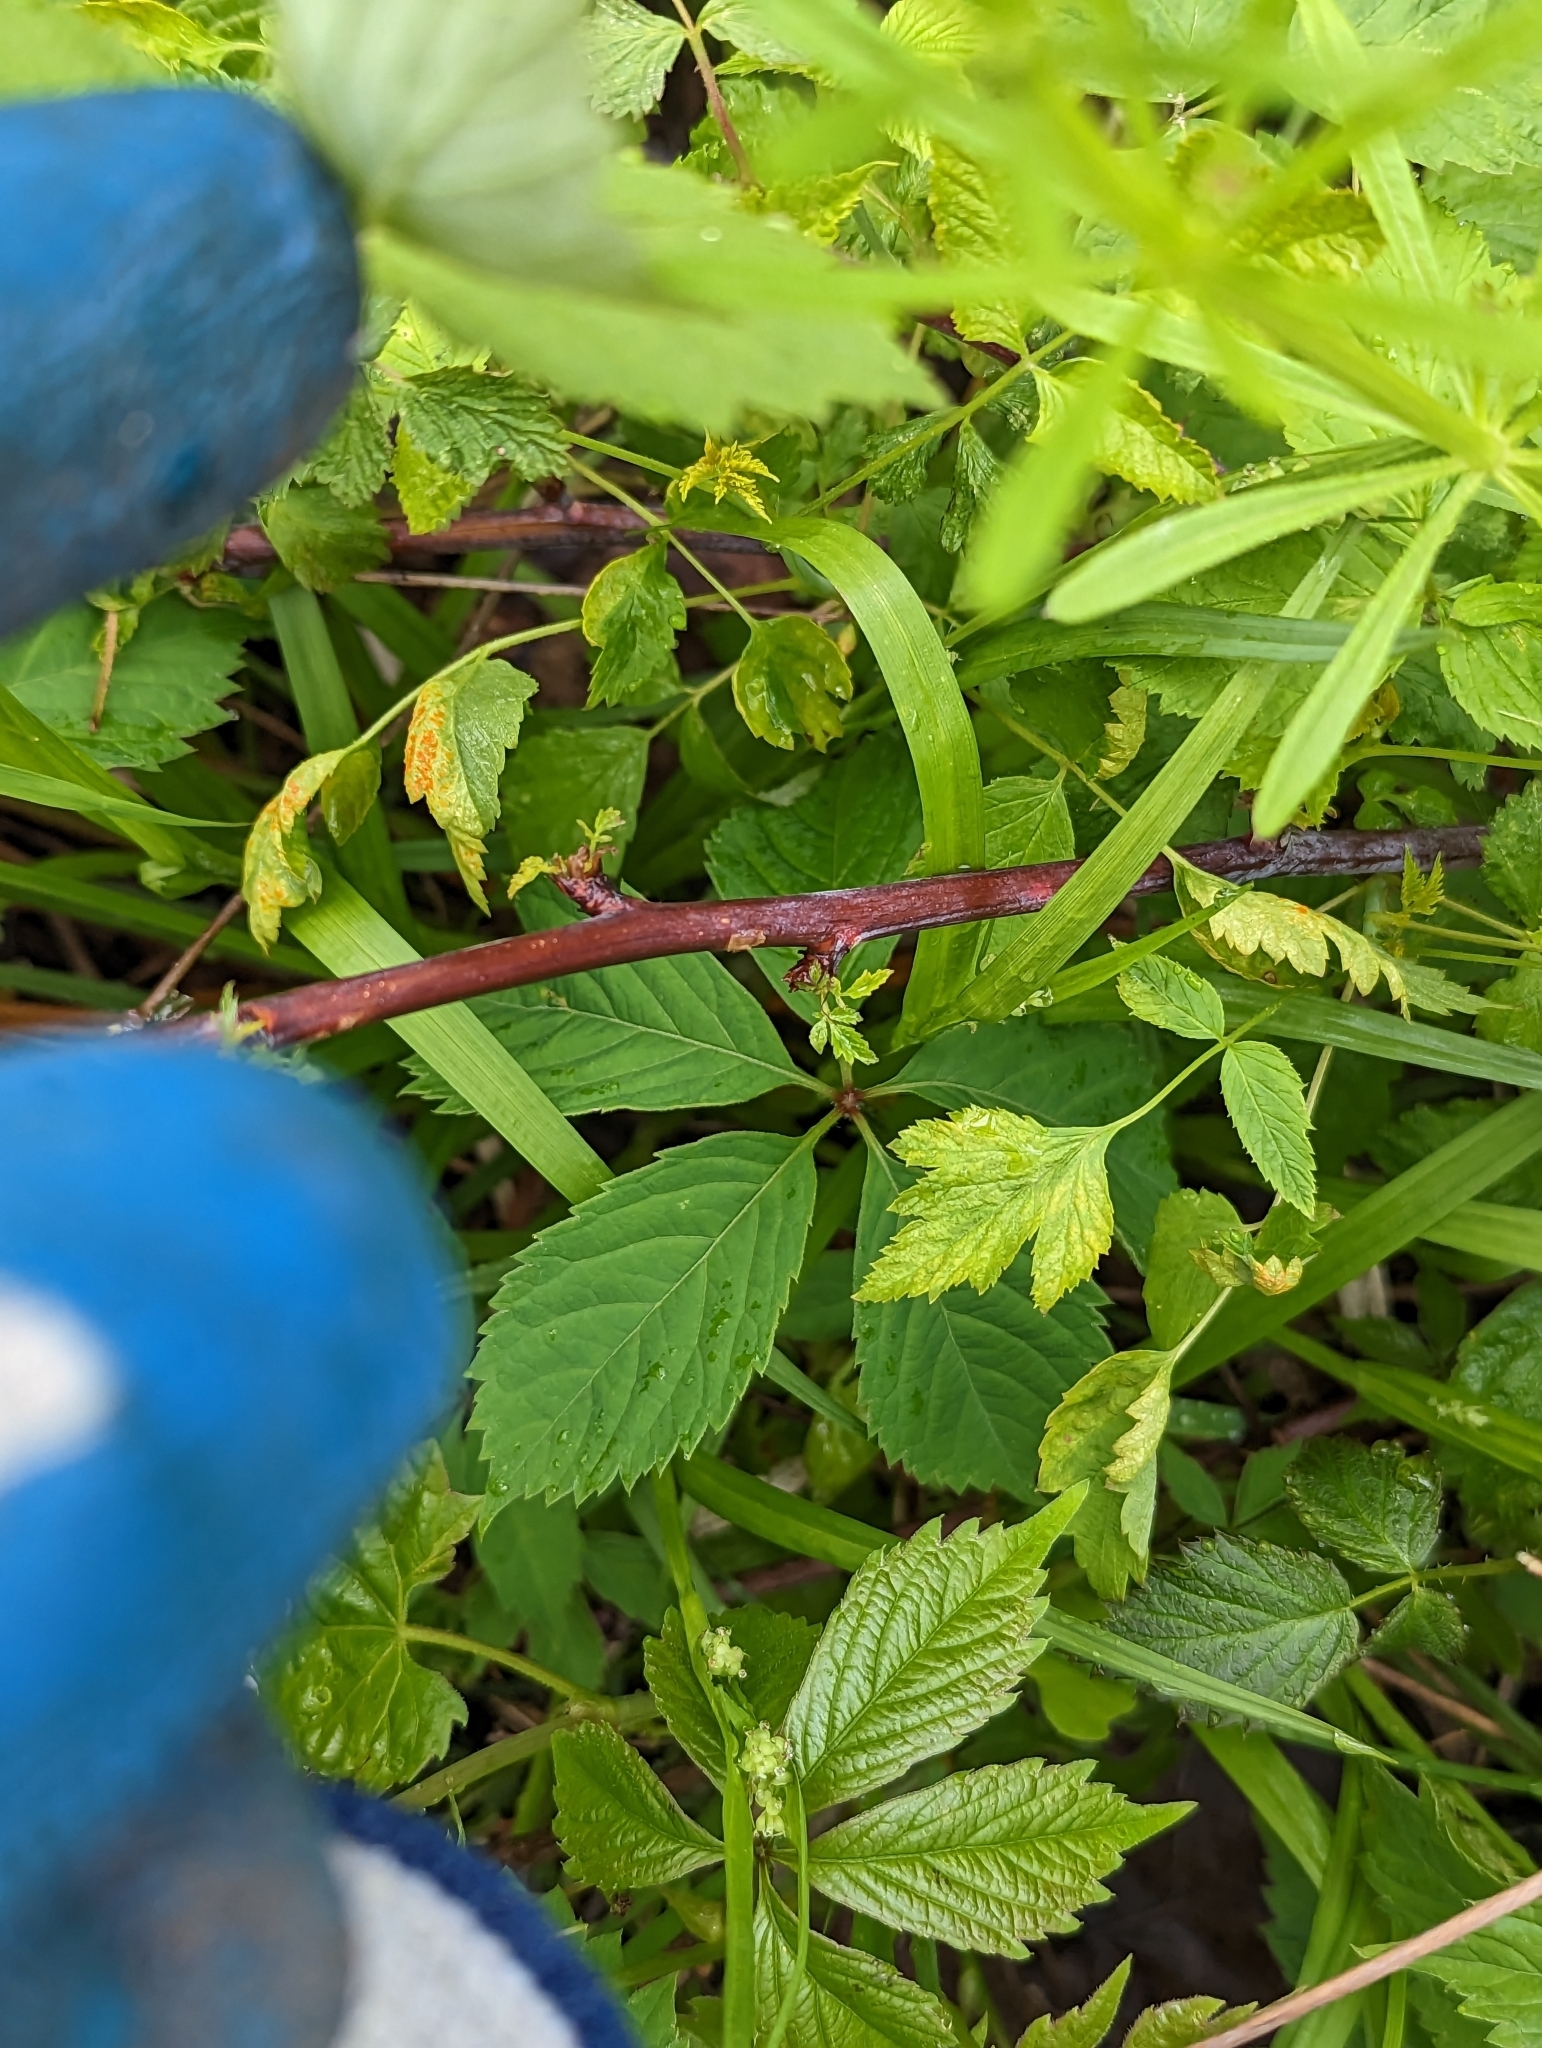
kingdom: Plantae
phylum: Tracheophyta
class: Magnoliopsida
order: Rosales
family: Rosaceae
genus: Rubus
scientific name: Rubus occidentalis
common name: Black raspberry
